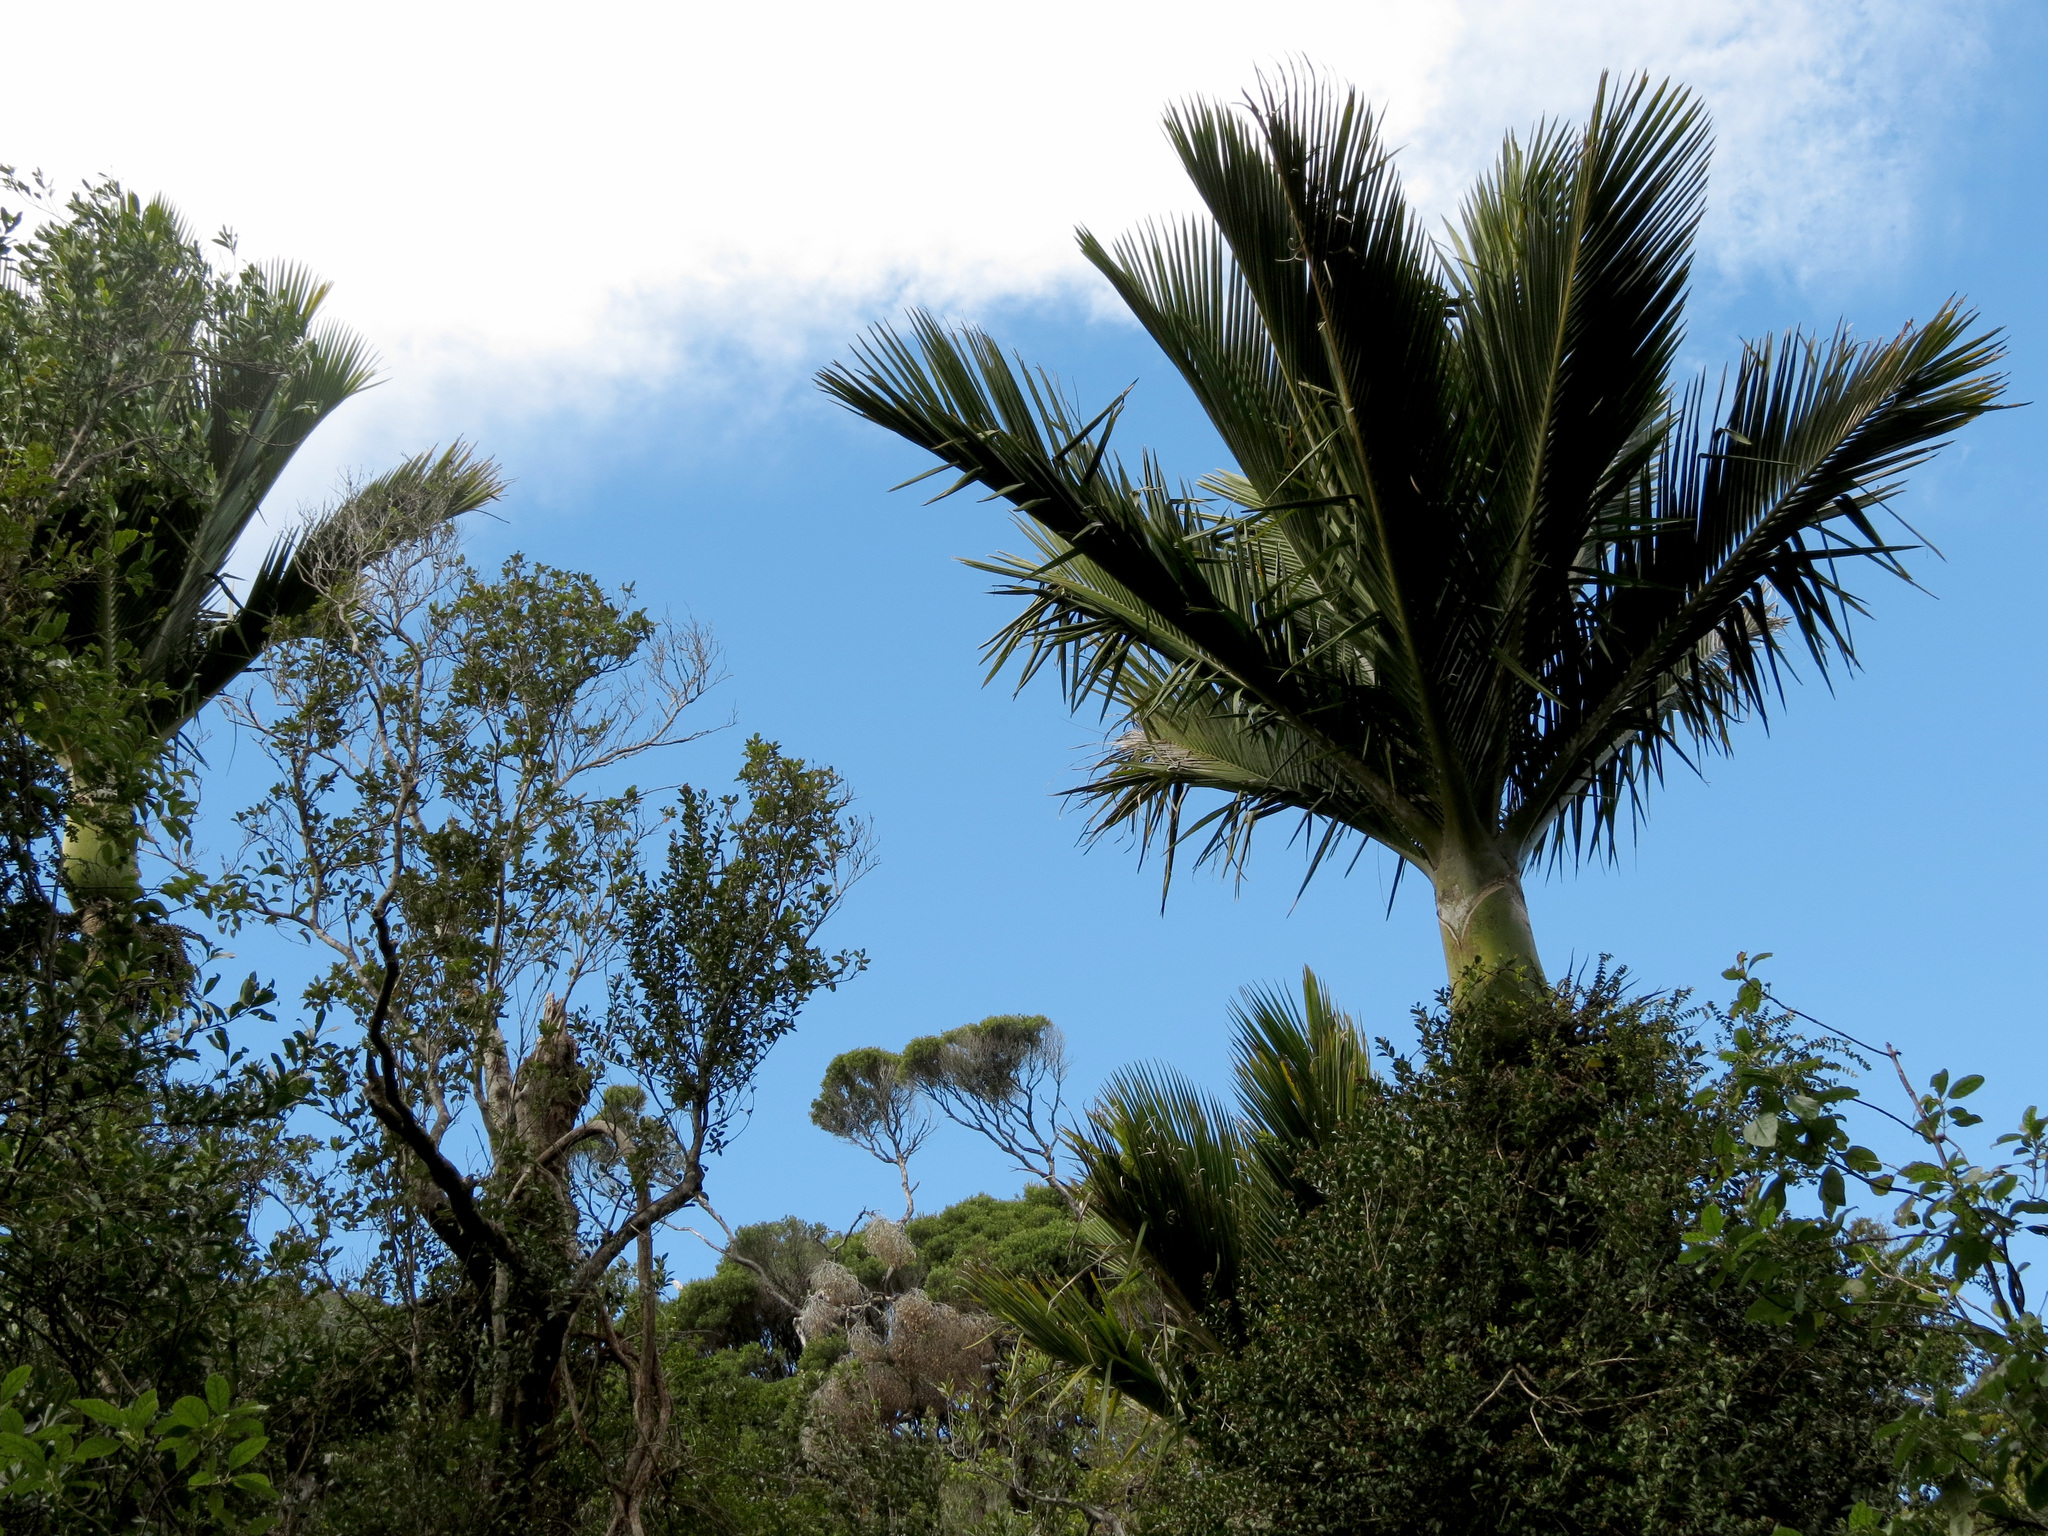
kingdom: Plantae
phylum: Tracheophyta
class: Liliopsida
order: Arecales
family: Arecaceae
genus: Rhopalostylis
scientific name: Rhopalostylis sapida
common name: Feather-duster palm
